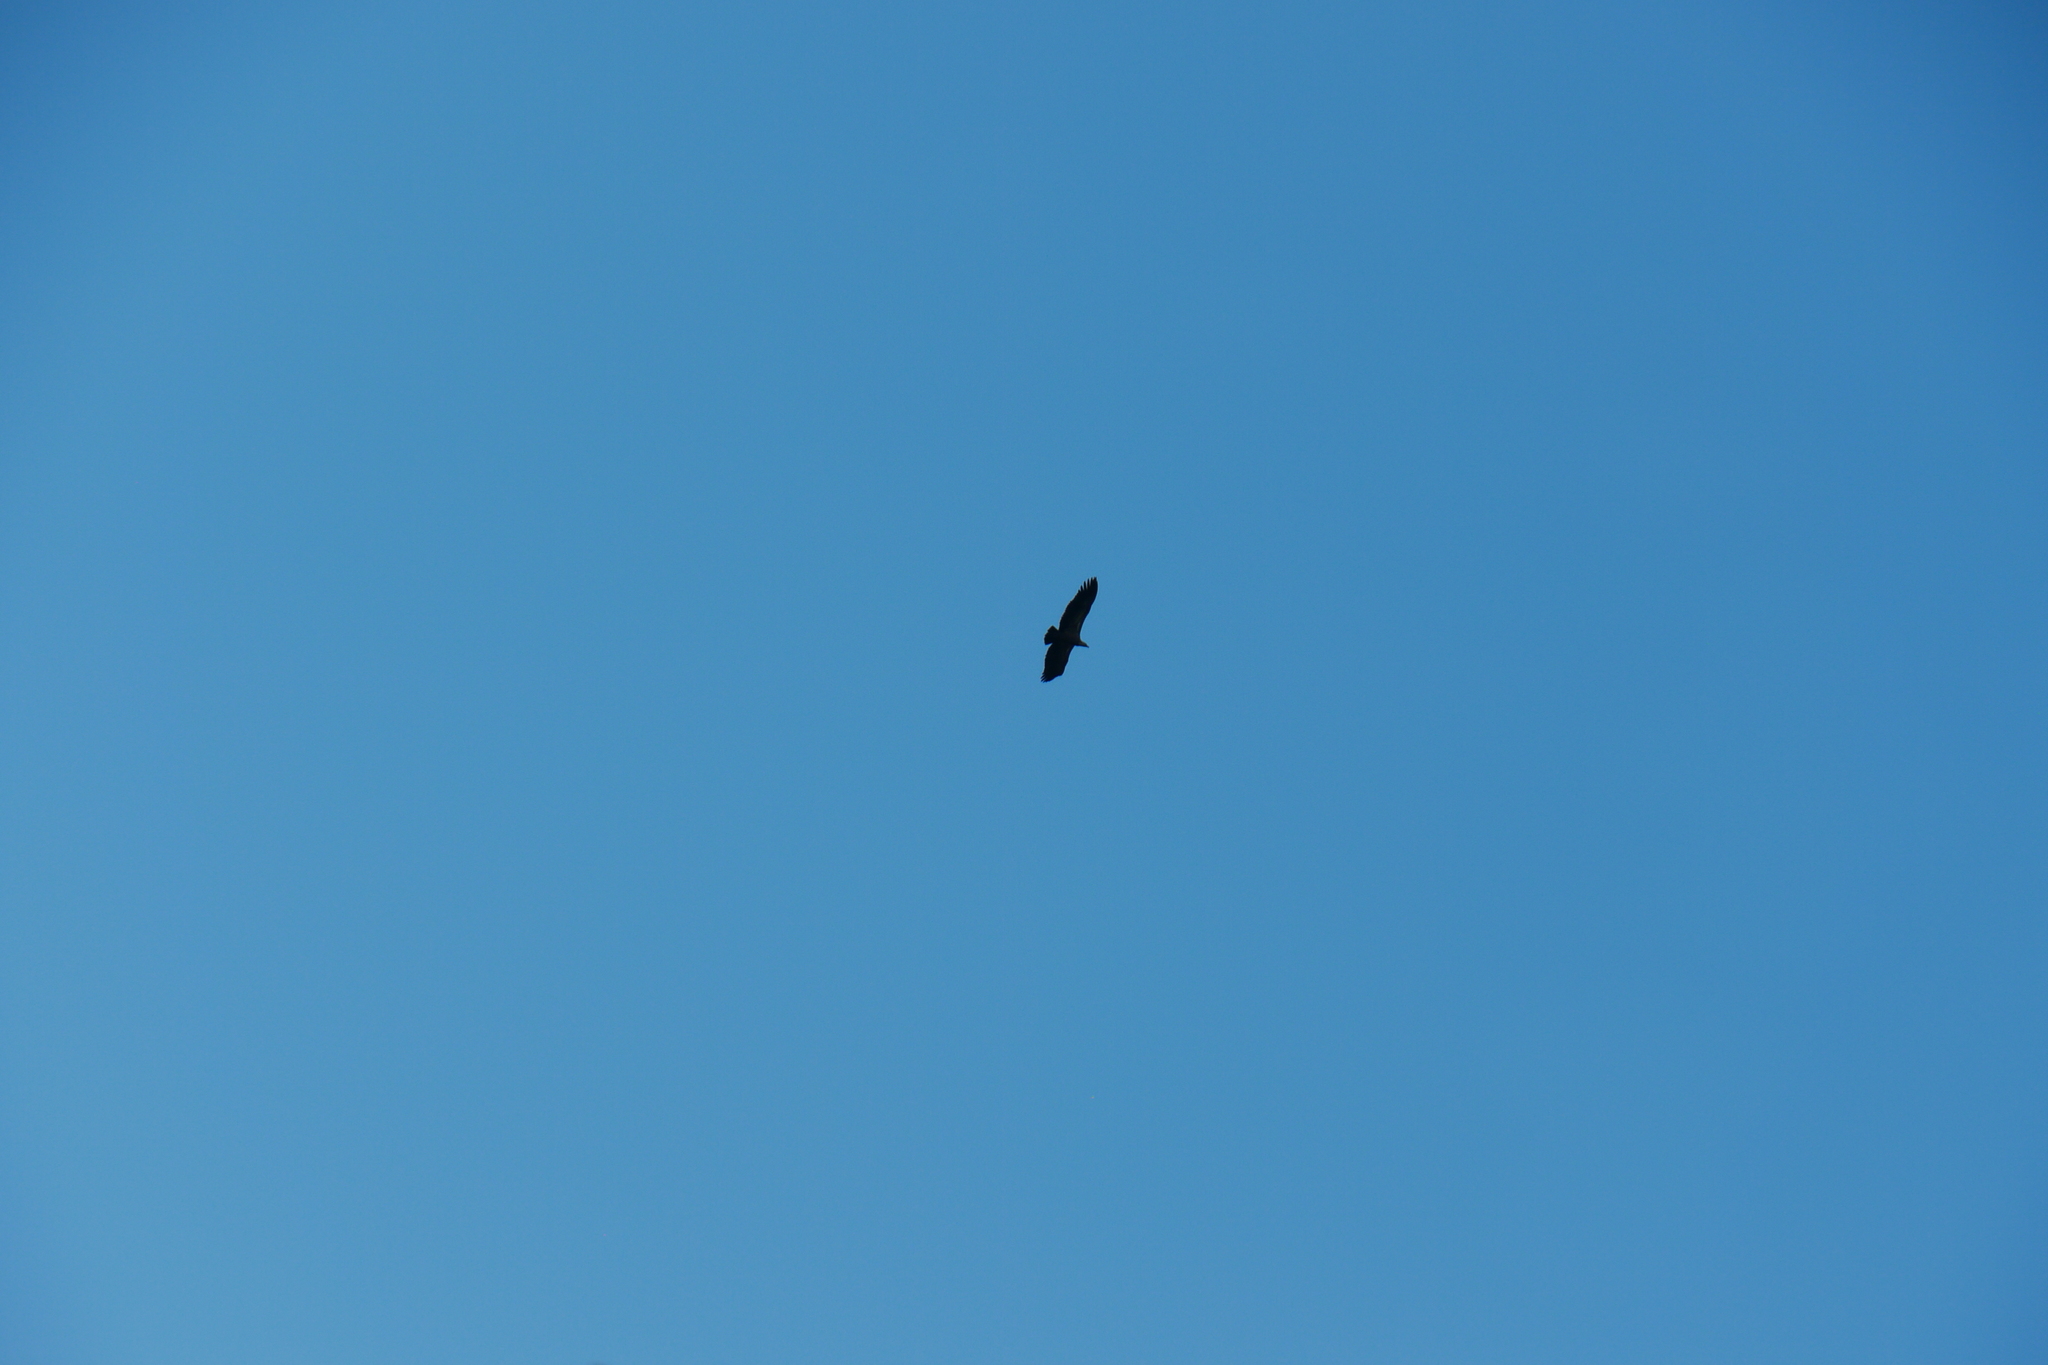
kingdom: Animalia
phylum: Chordata
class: Aves
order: Accipitriformes
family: Accipitridae
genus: Gyps
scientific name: Gyps fulvus
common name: Griffon vulture
